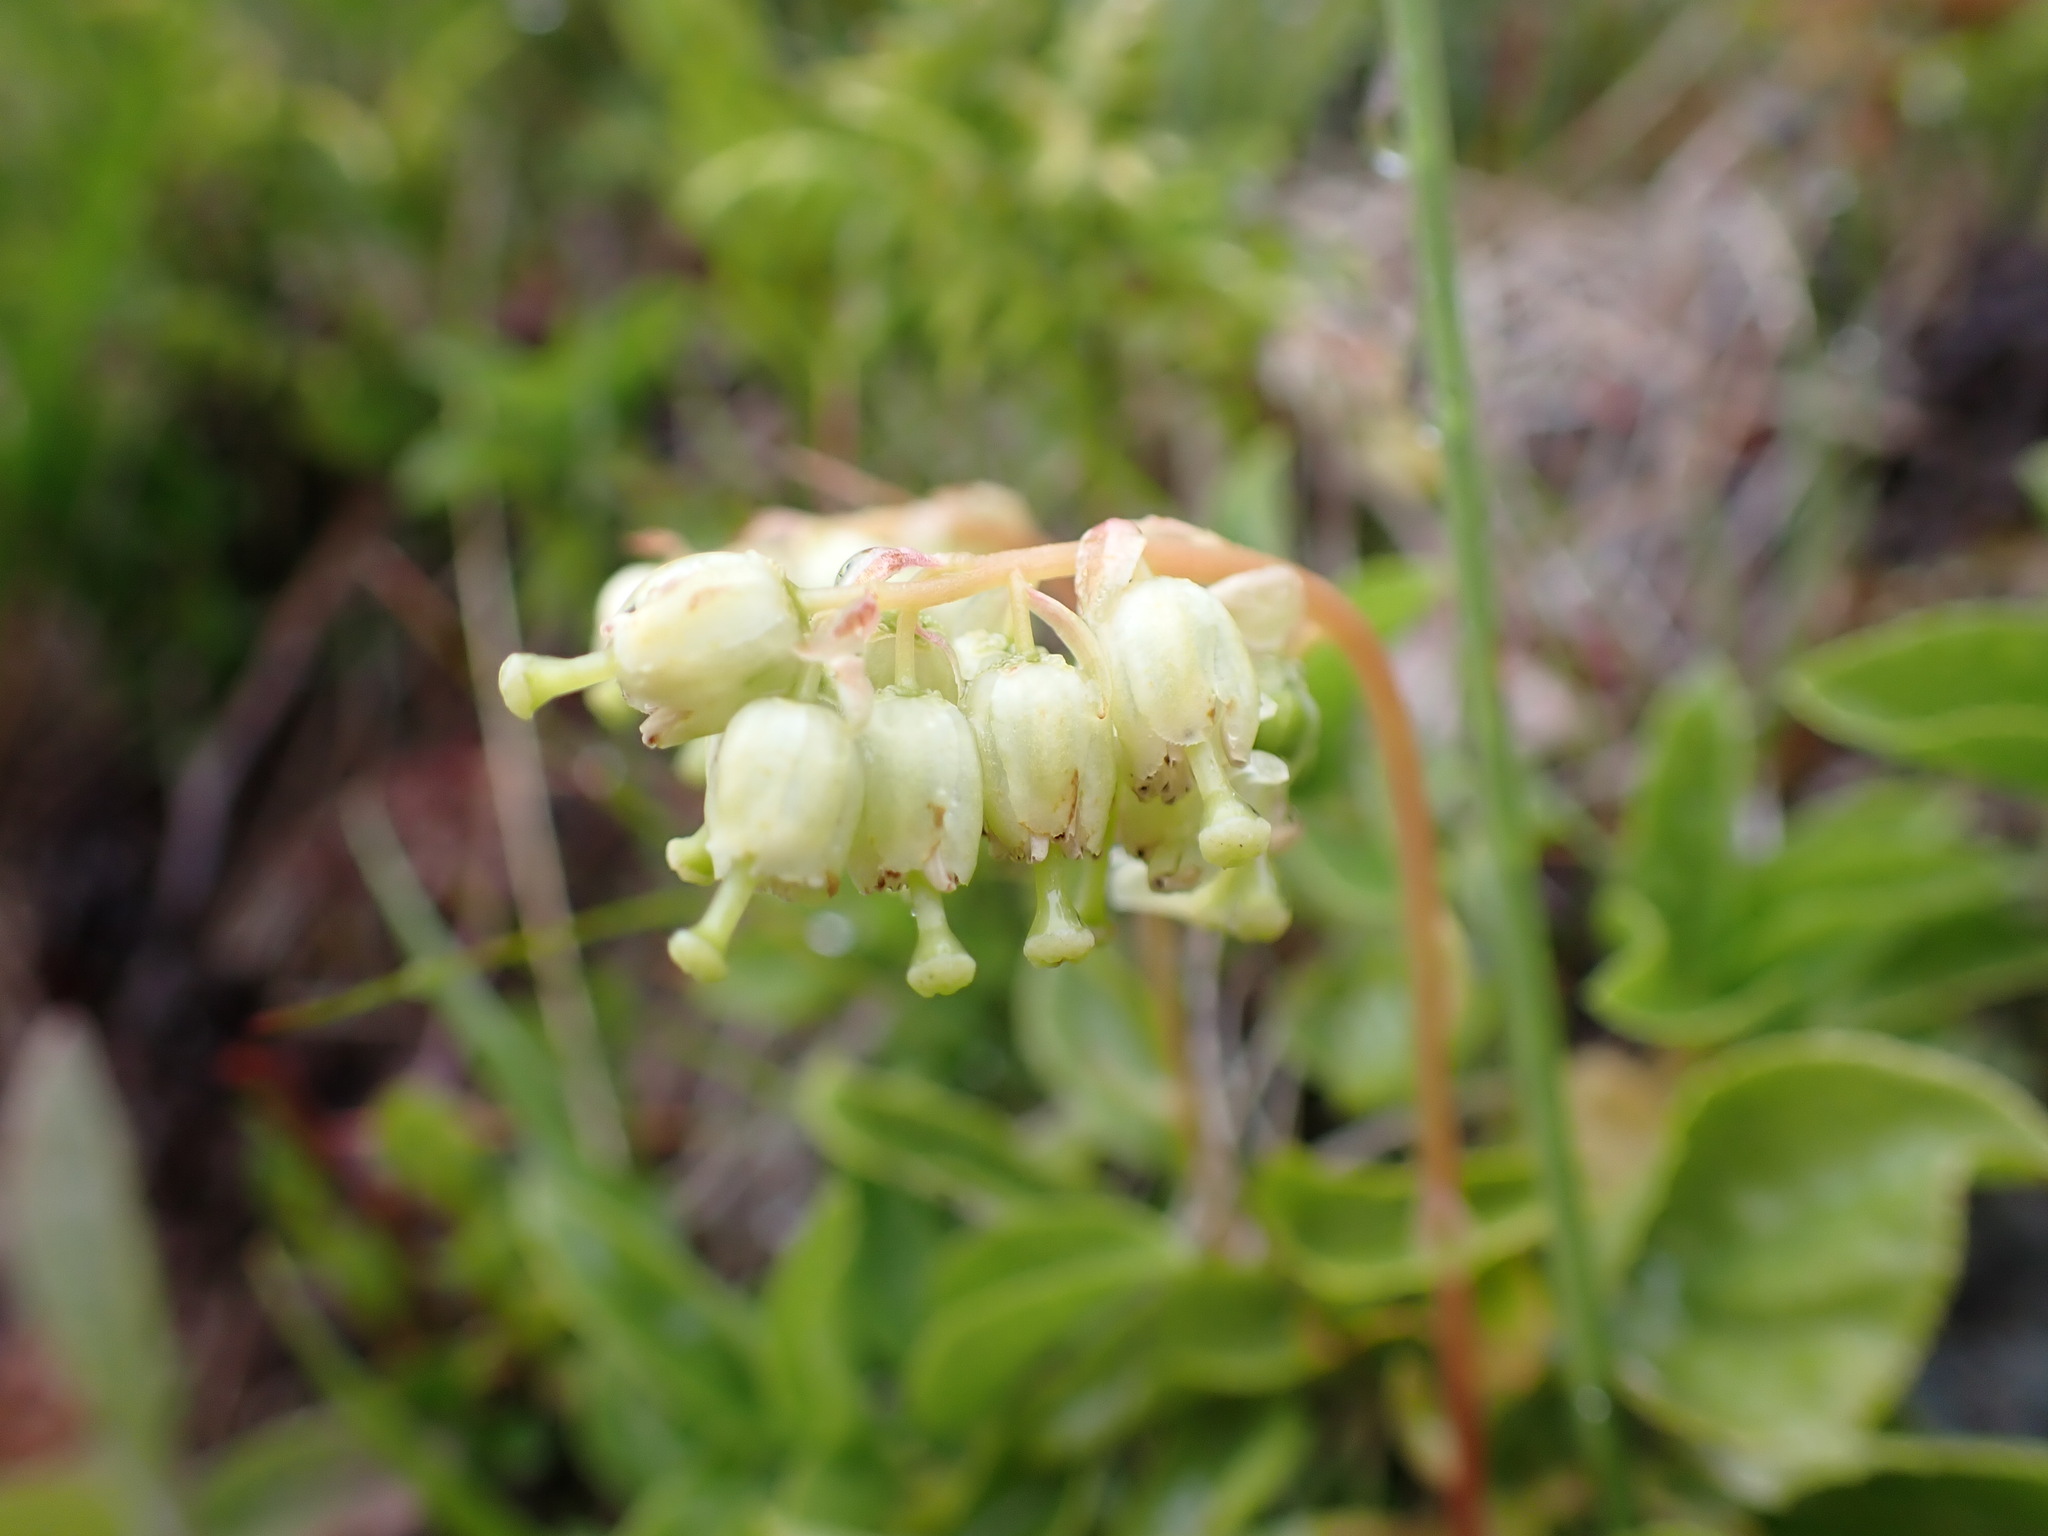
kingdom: Plantae
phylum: Tracheophyta
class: Magnoliopsida
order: Ericales
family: Ericaceae
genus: Orthilia
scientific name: Orthilia secunda
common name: One-sided orthilia
